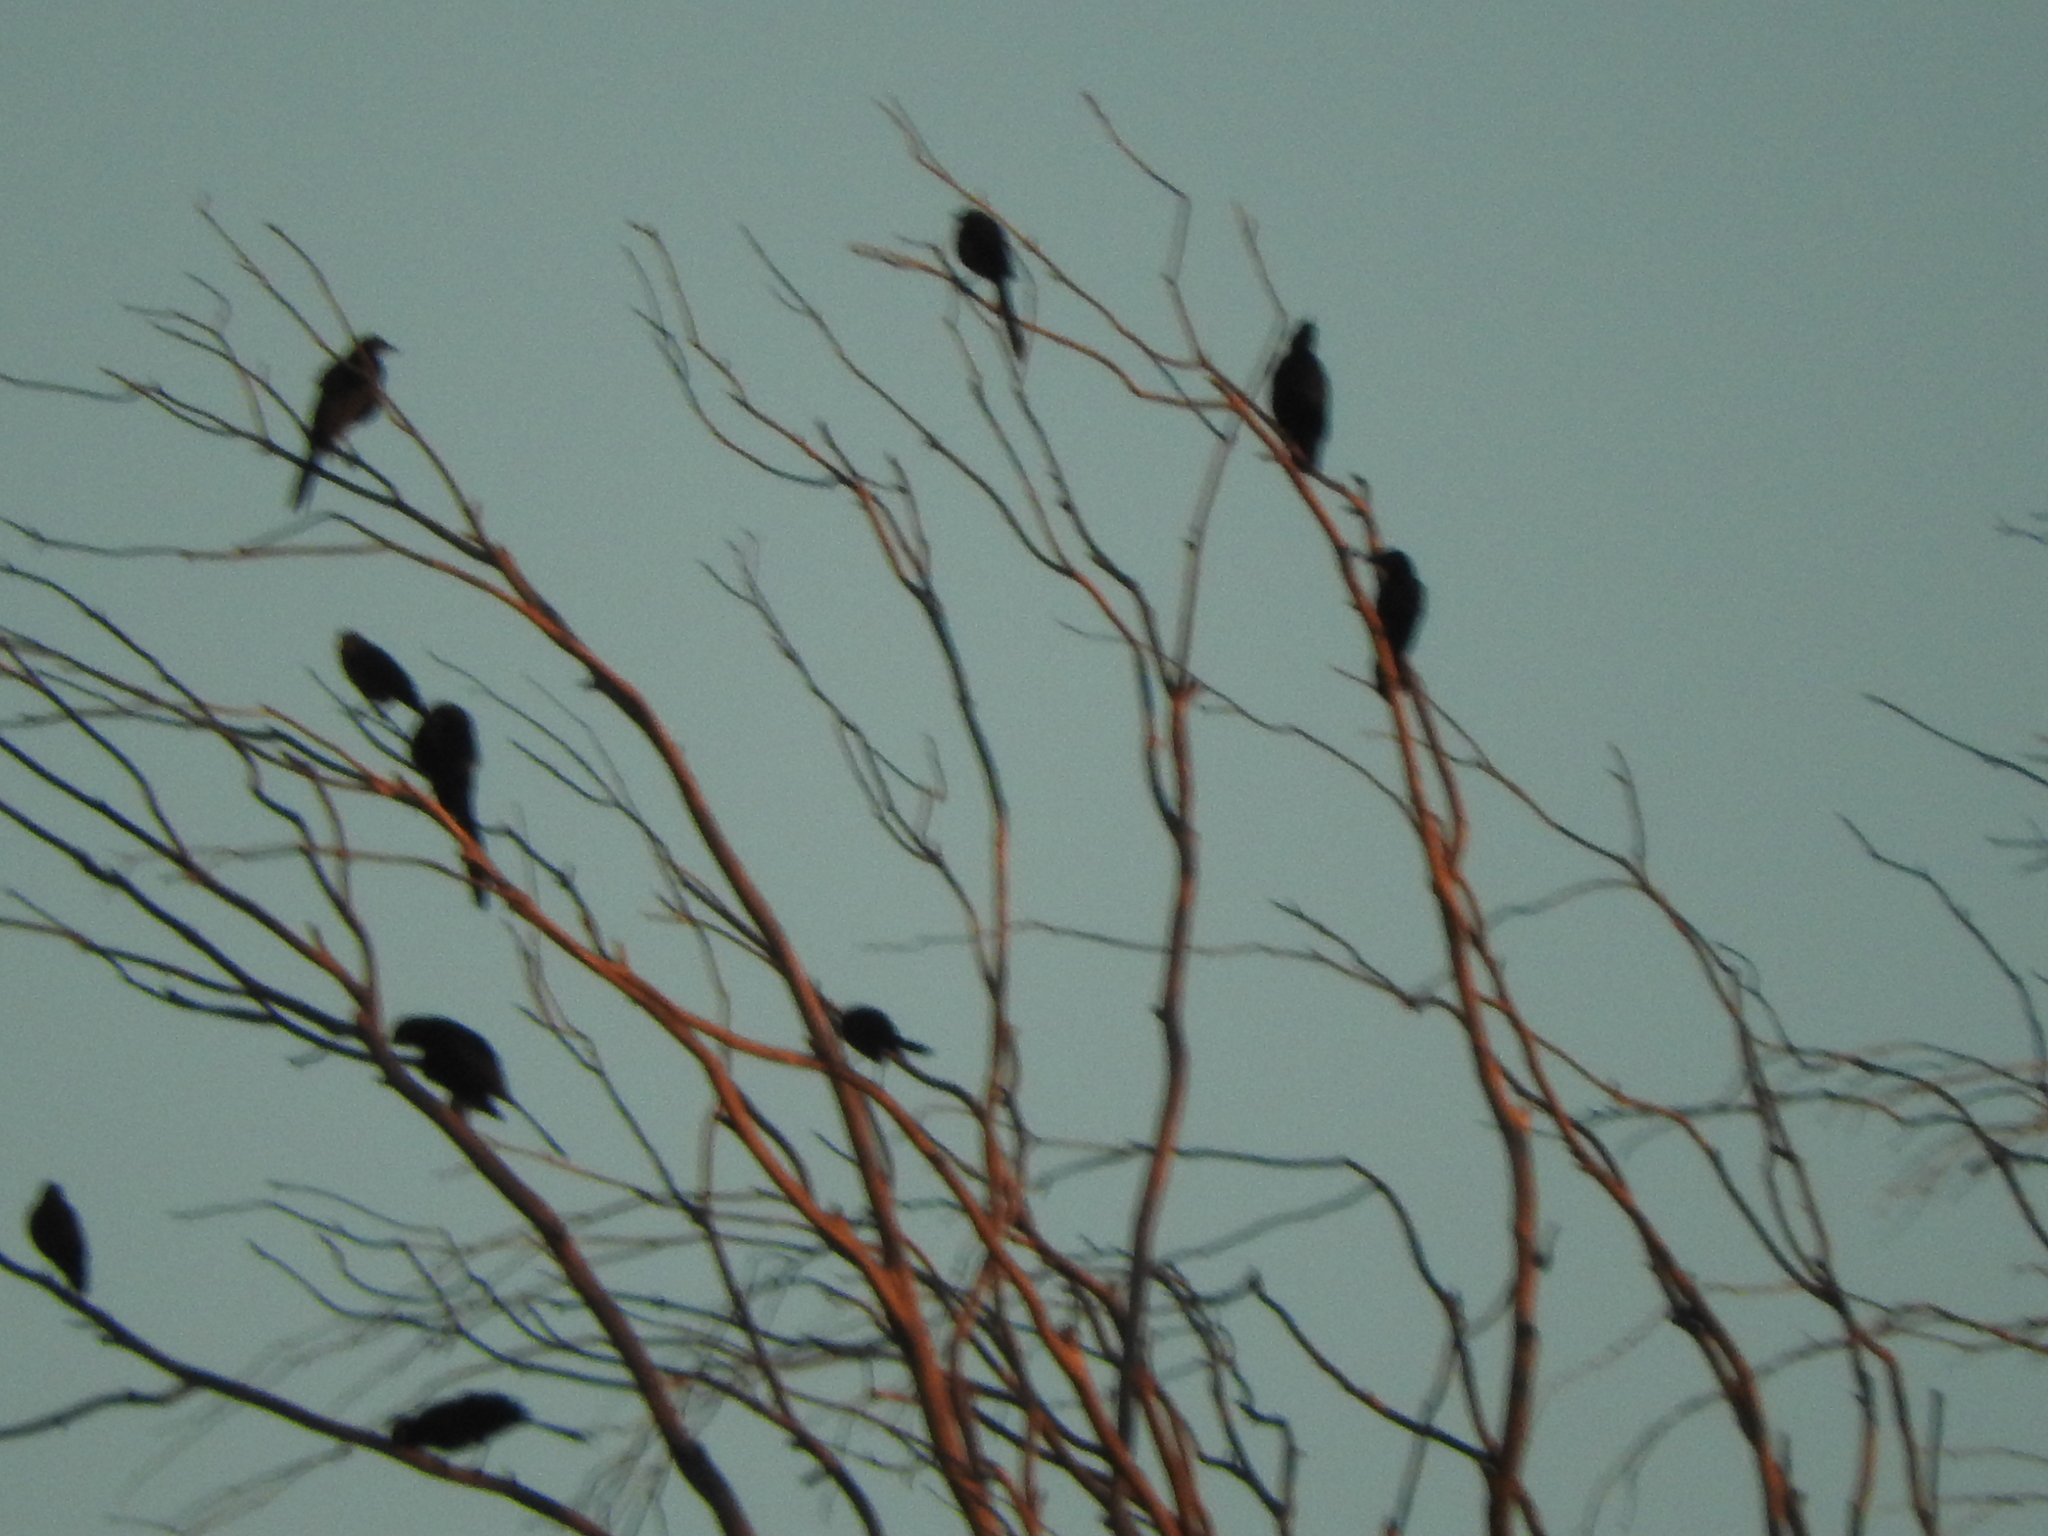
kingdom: Animalia
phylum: Chordata
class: Aves
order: Passeriformes
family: Icteridae
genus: Quiscalus
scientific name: Quiscalus mexicanus
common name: Great-tailed grackle
